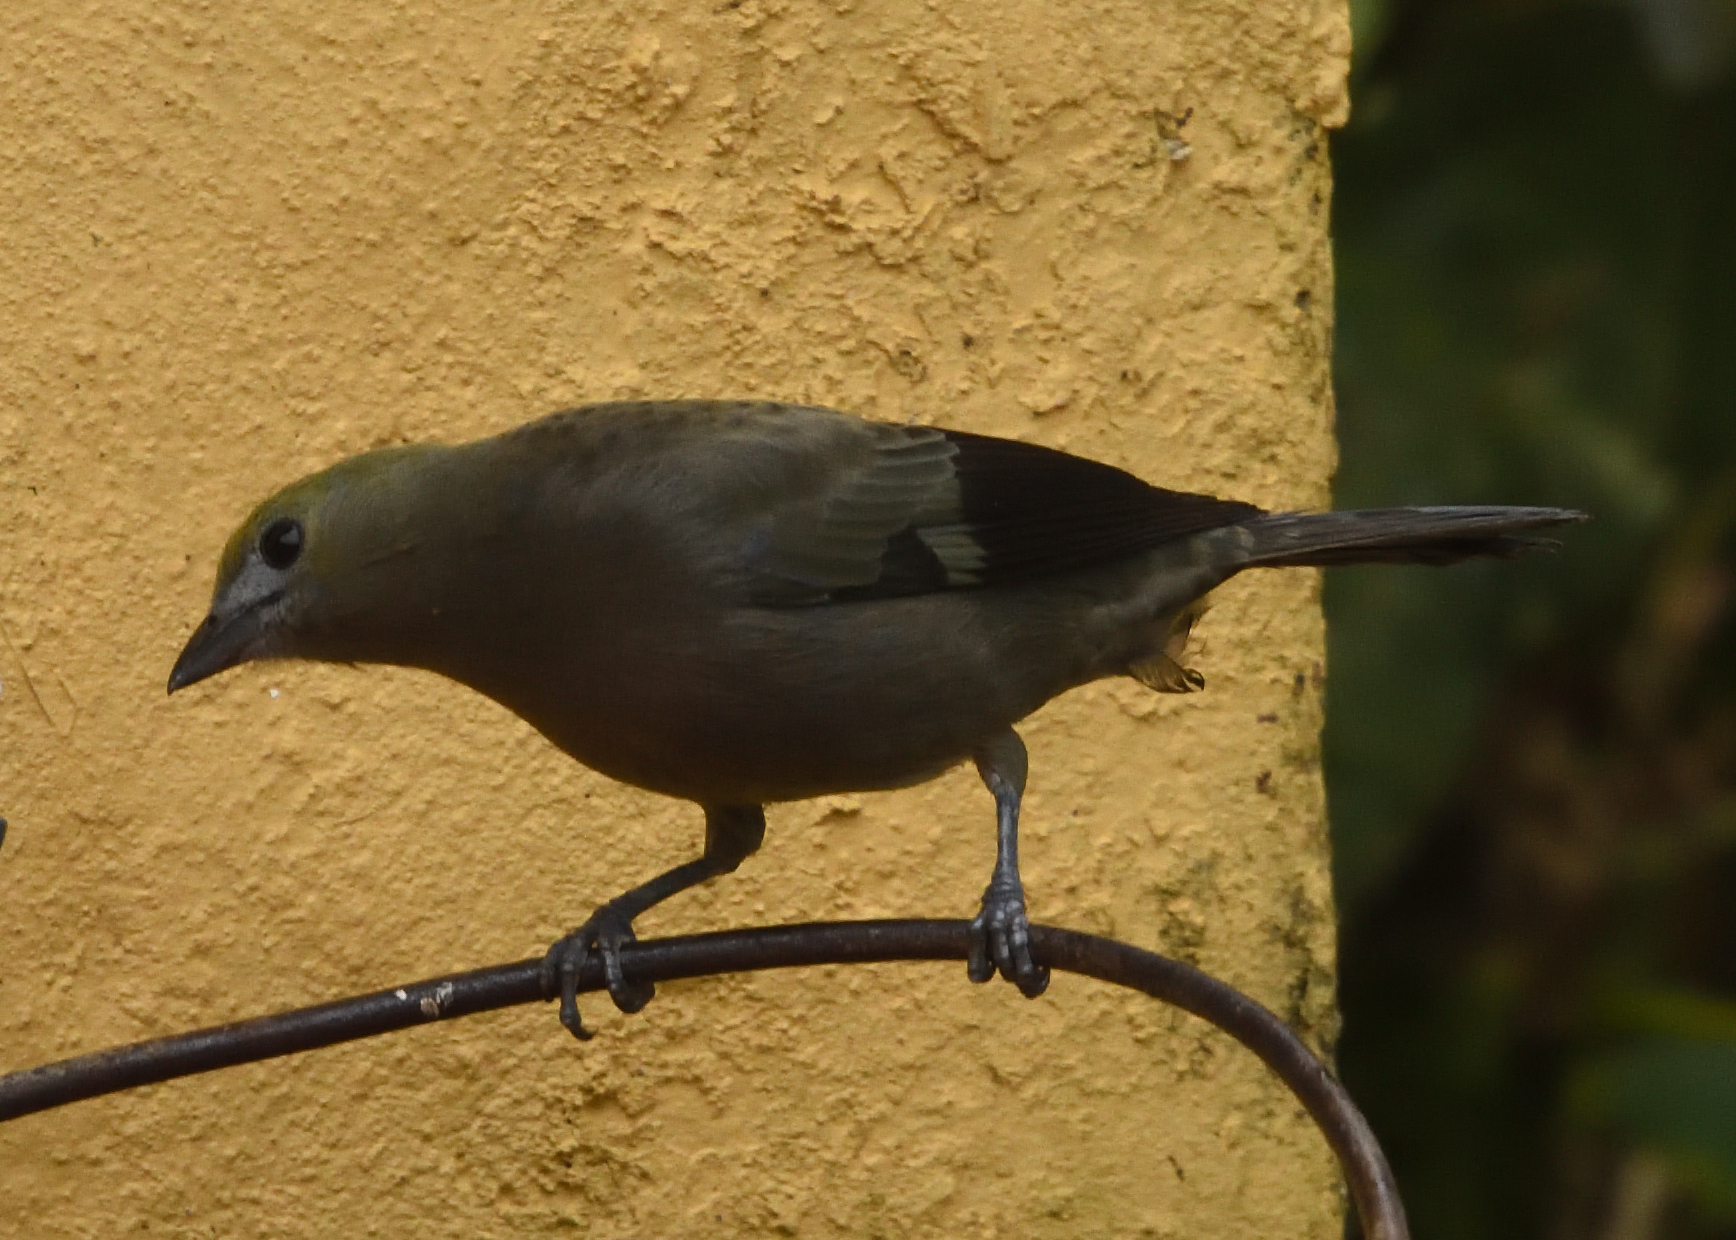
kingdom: Animalia
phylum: Chordata
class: Aves
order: Passeriformes
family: Thraupidae
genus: Thraupis
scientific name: Thraupis palmarum
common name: Palm tanager
